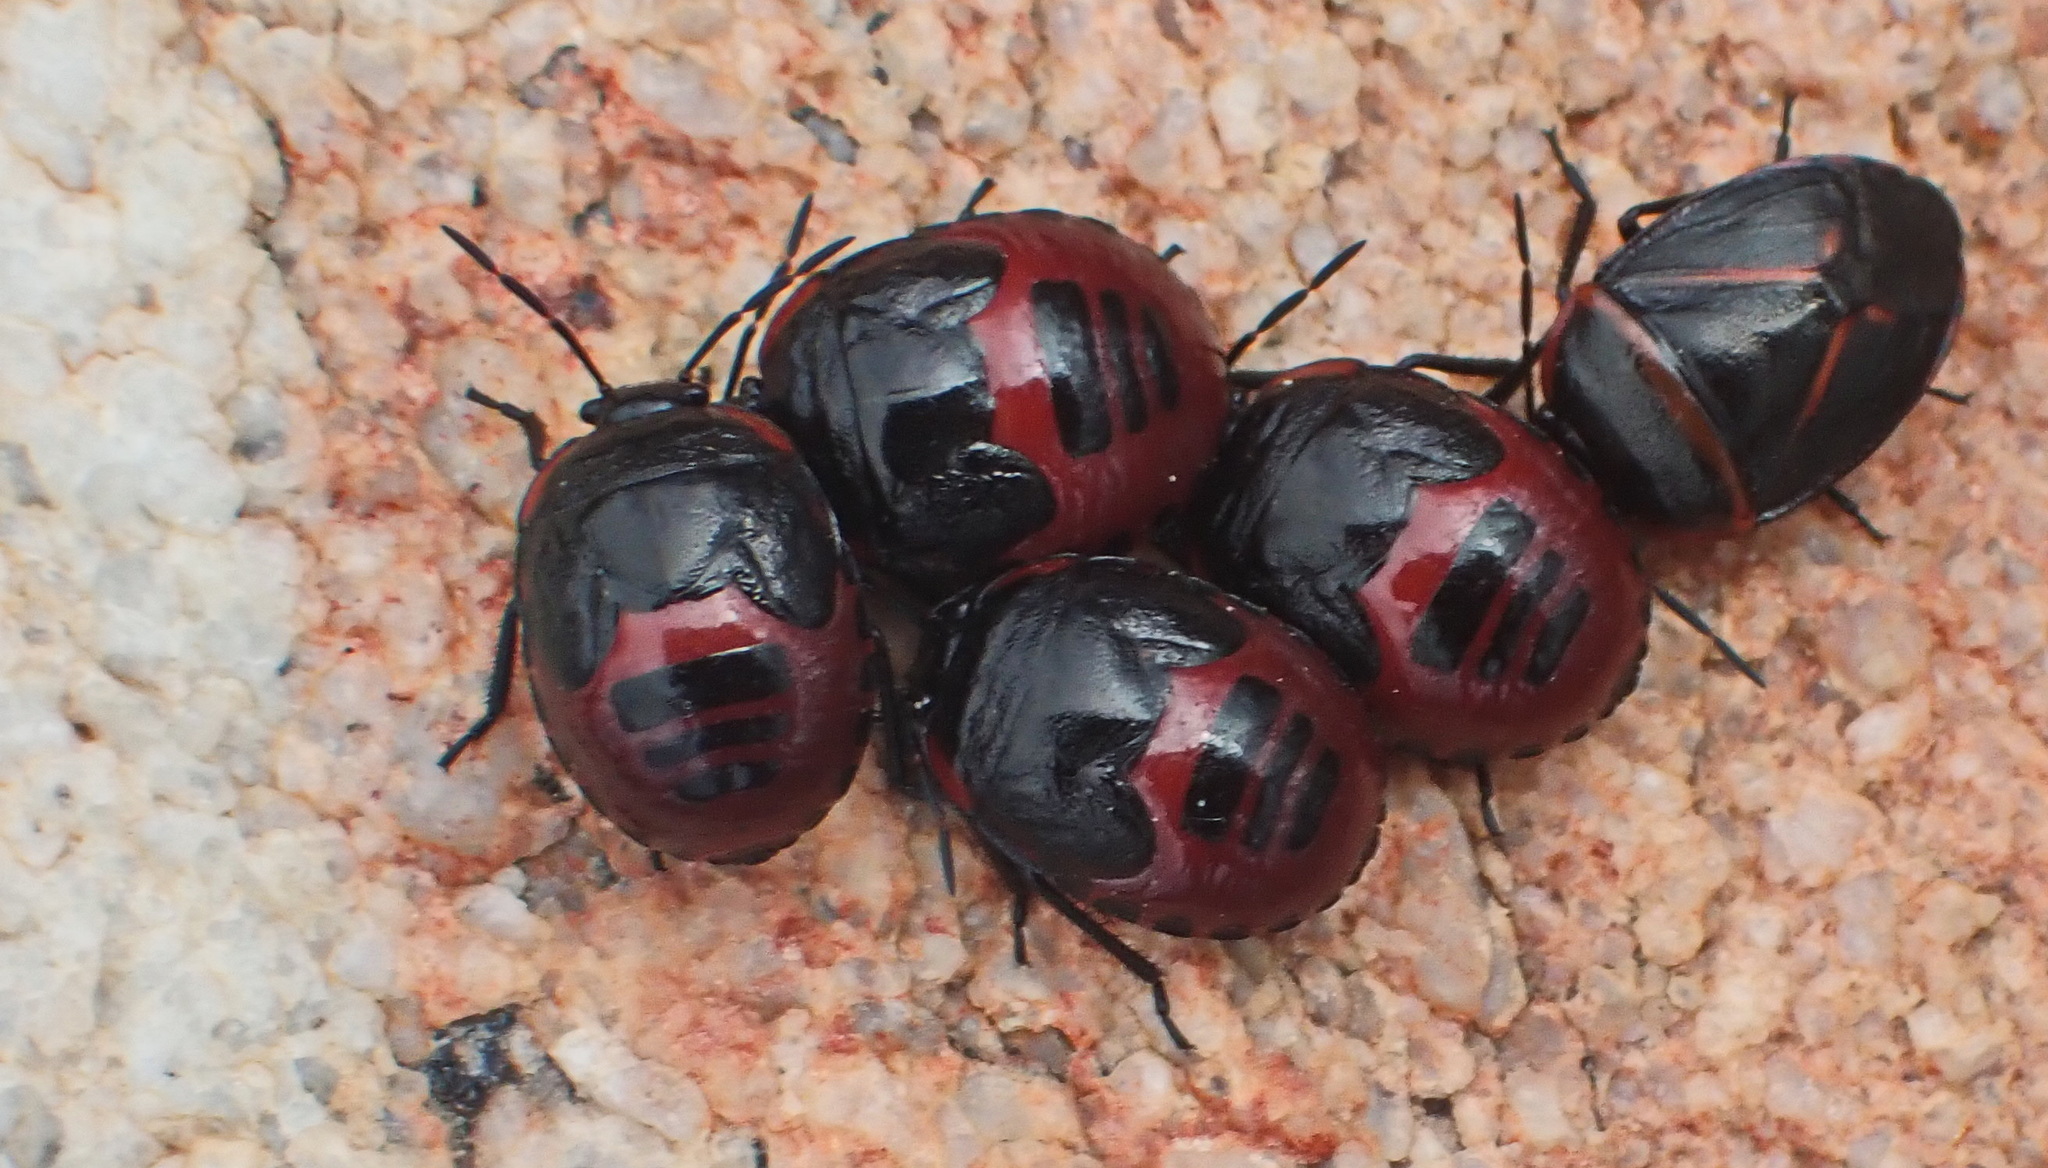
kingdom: Animalia
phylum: Arthropoda
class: Insecta
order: Hemiptera
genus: Dismegistus
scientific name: Dismegistus
